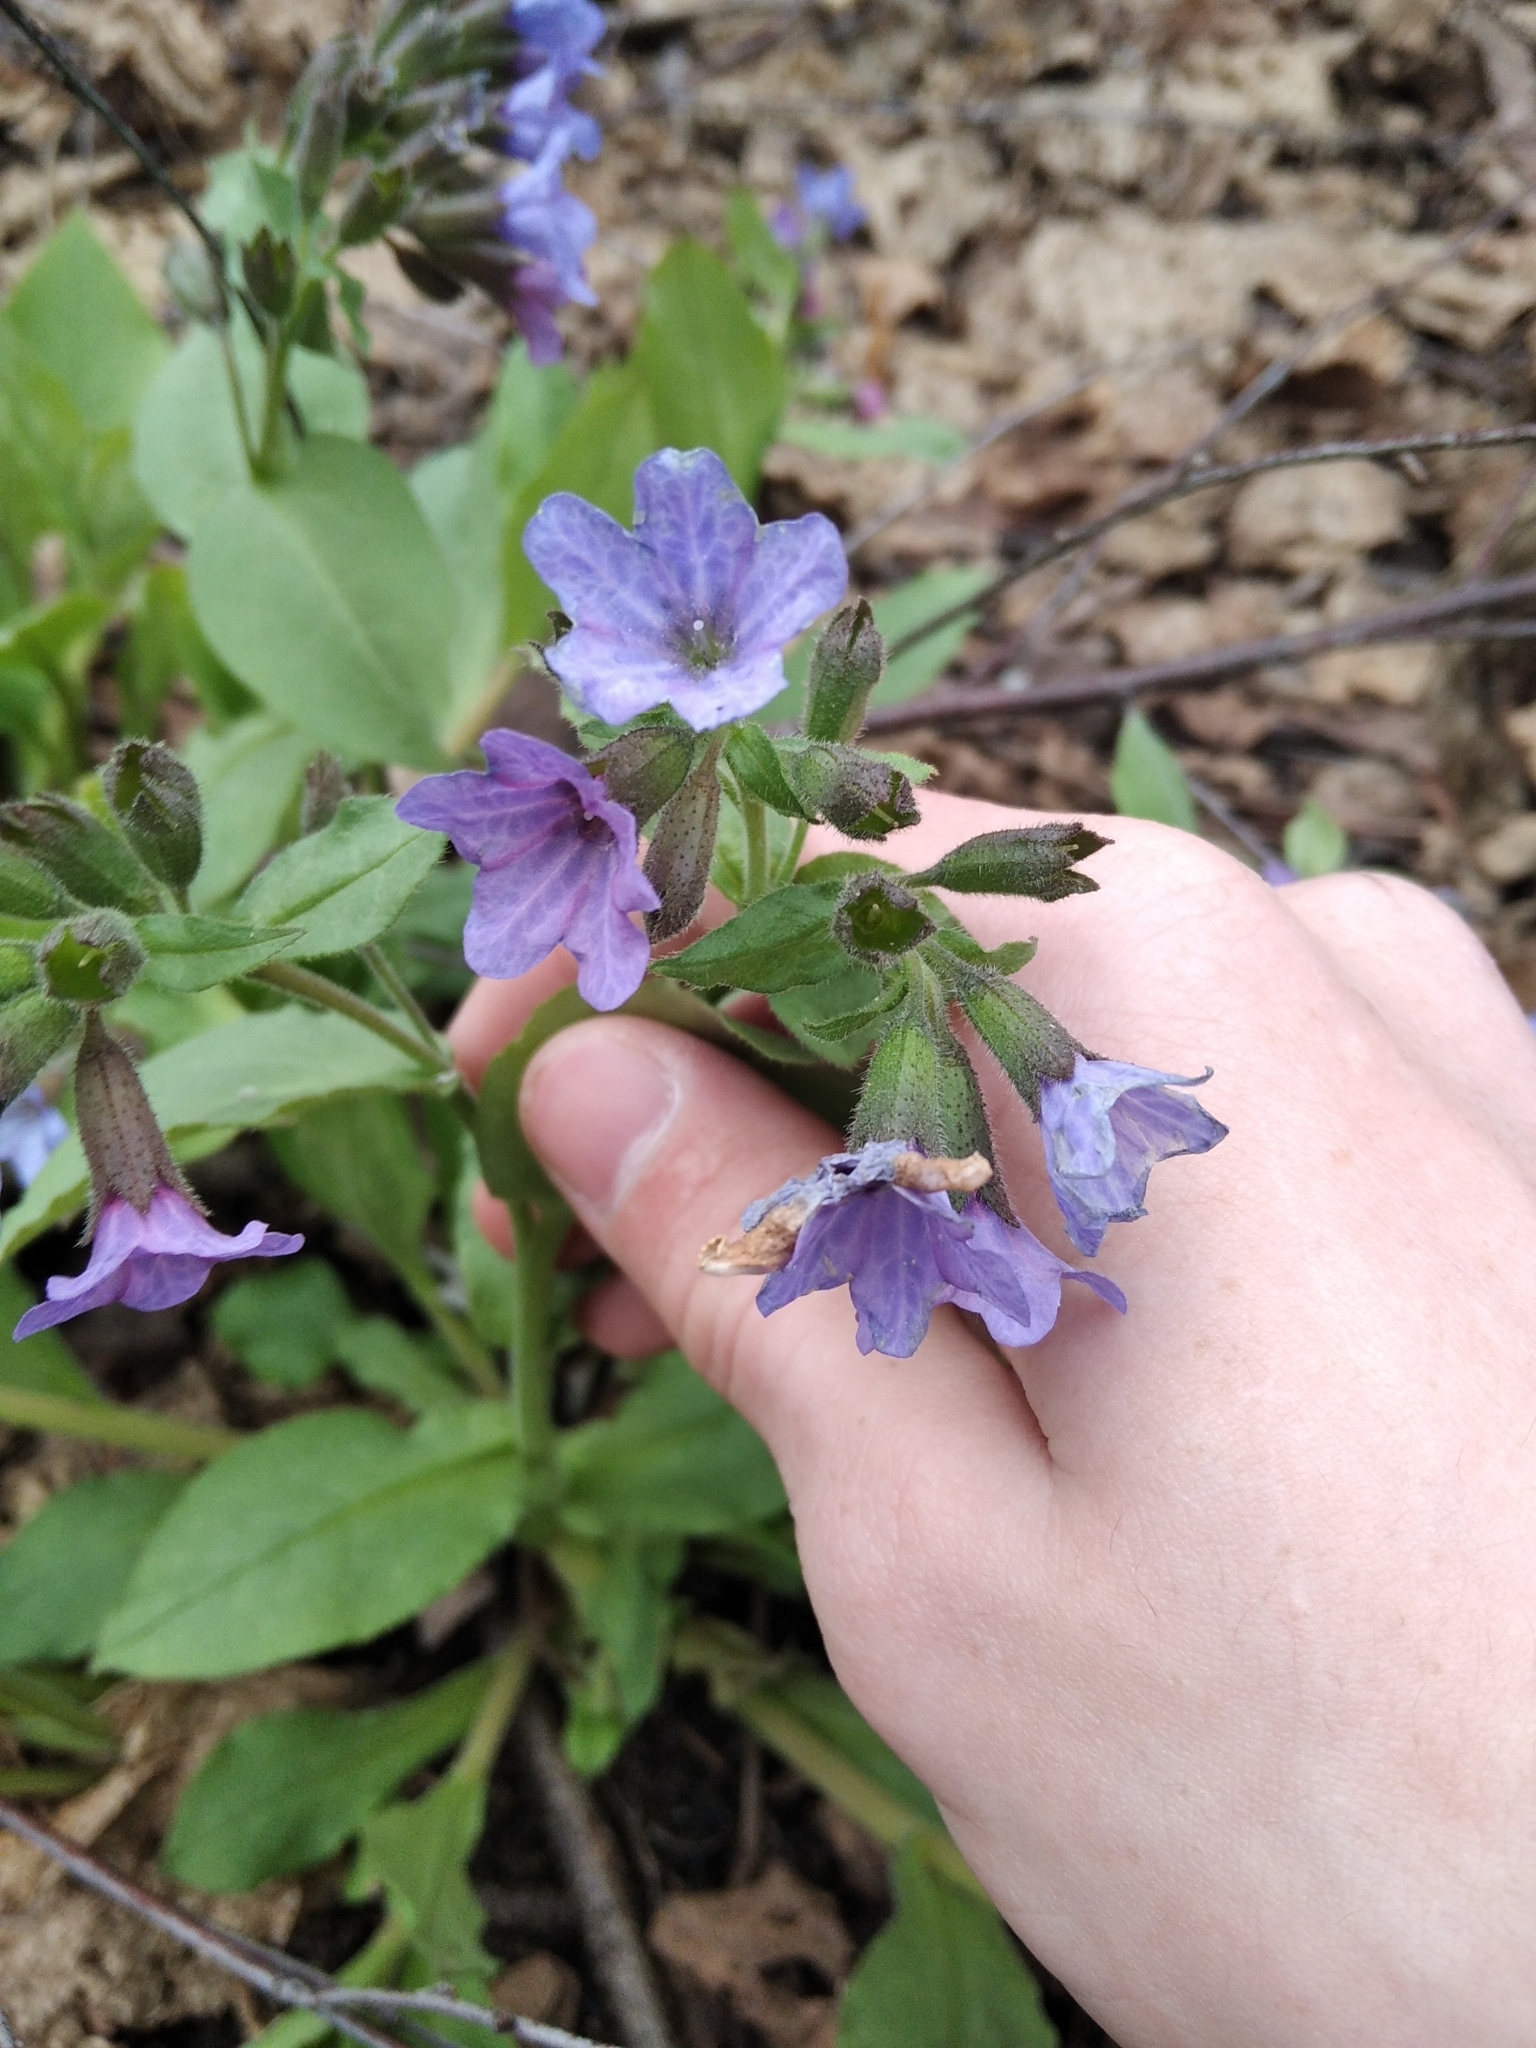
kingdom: Plantae
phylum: Tracheophyta
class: Magnoliopsida
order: Boraginales
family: Boraginaceae
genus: Pulmonaria
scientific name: Pulmonaria obscura
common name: Suffolk lungwort
